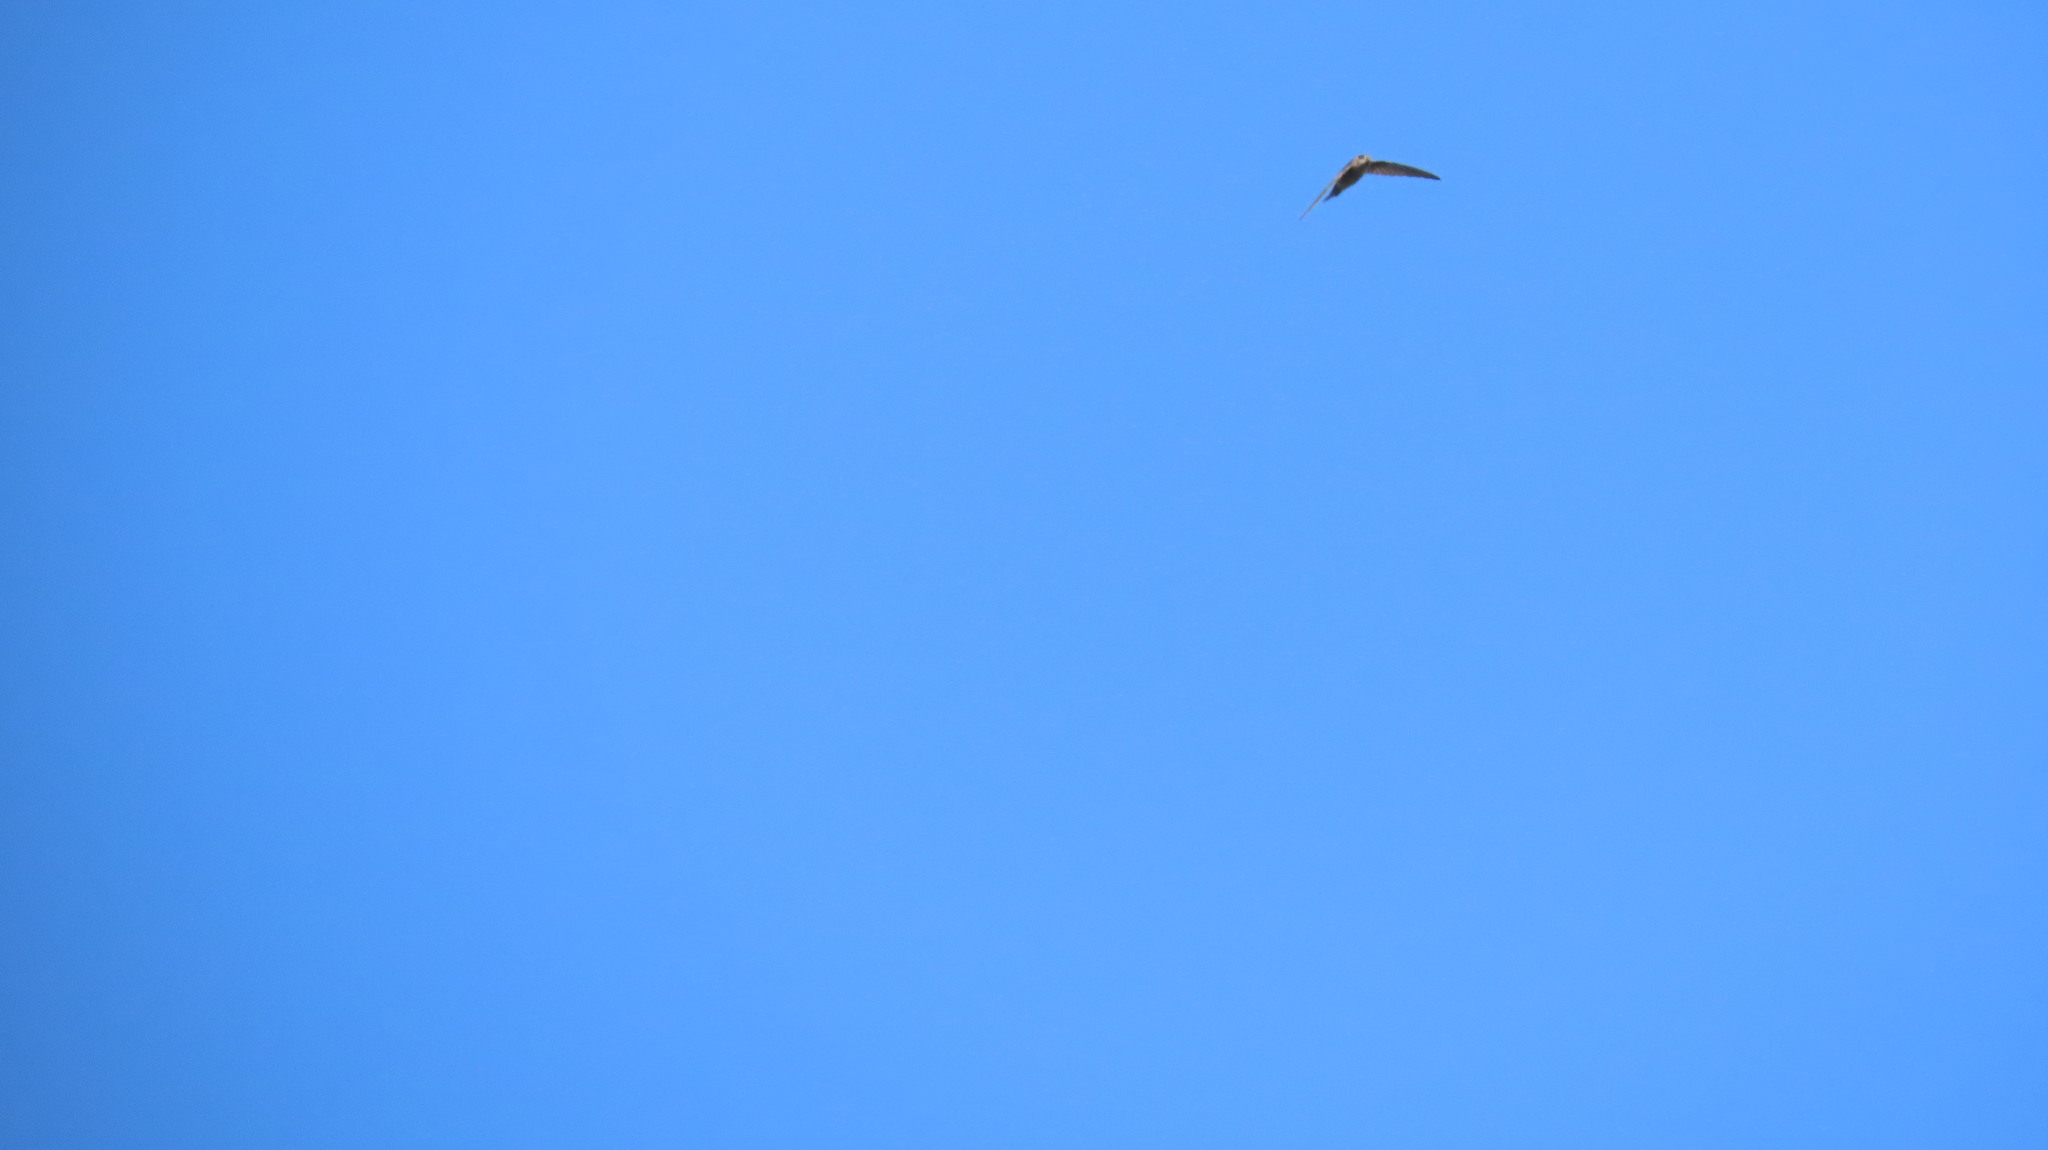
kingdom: Animalia
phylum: Chordata
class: Aves
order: Apodiformes
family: Apodidae
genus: Cypsiurus
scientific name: Cypsiurus balasiensis
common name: Asian palm swift
